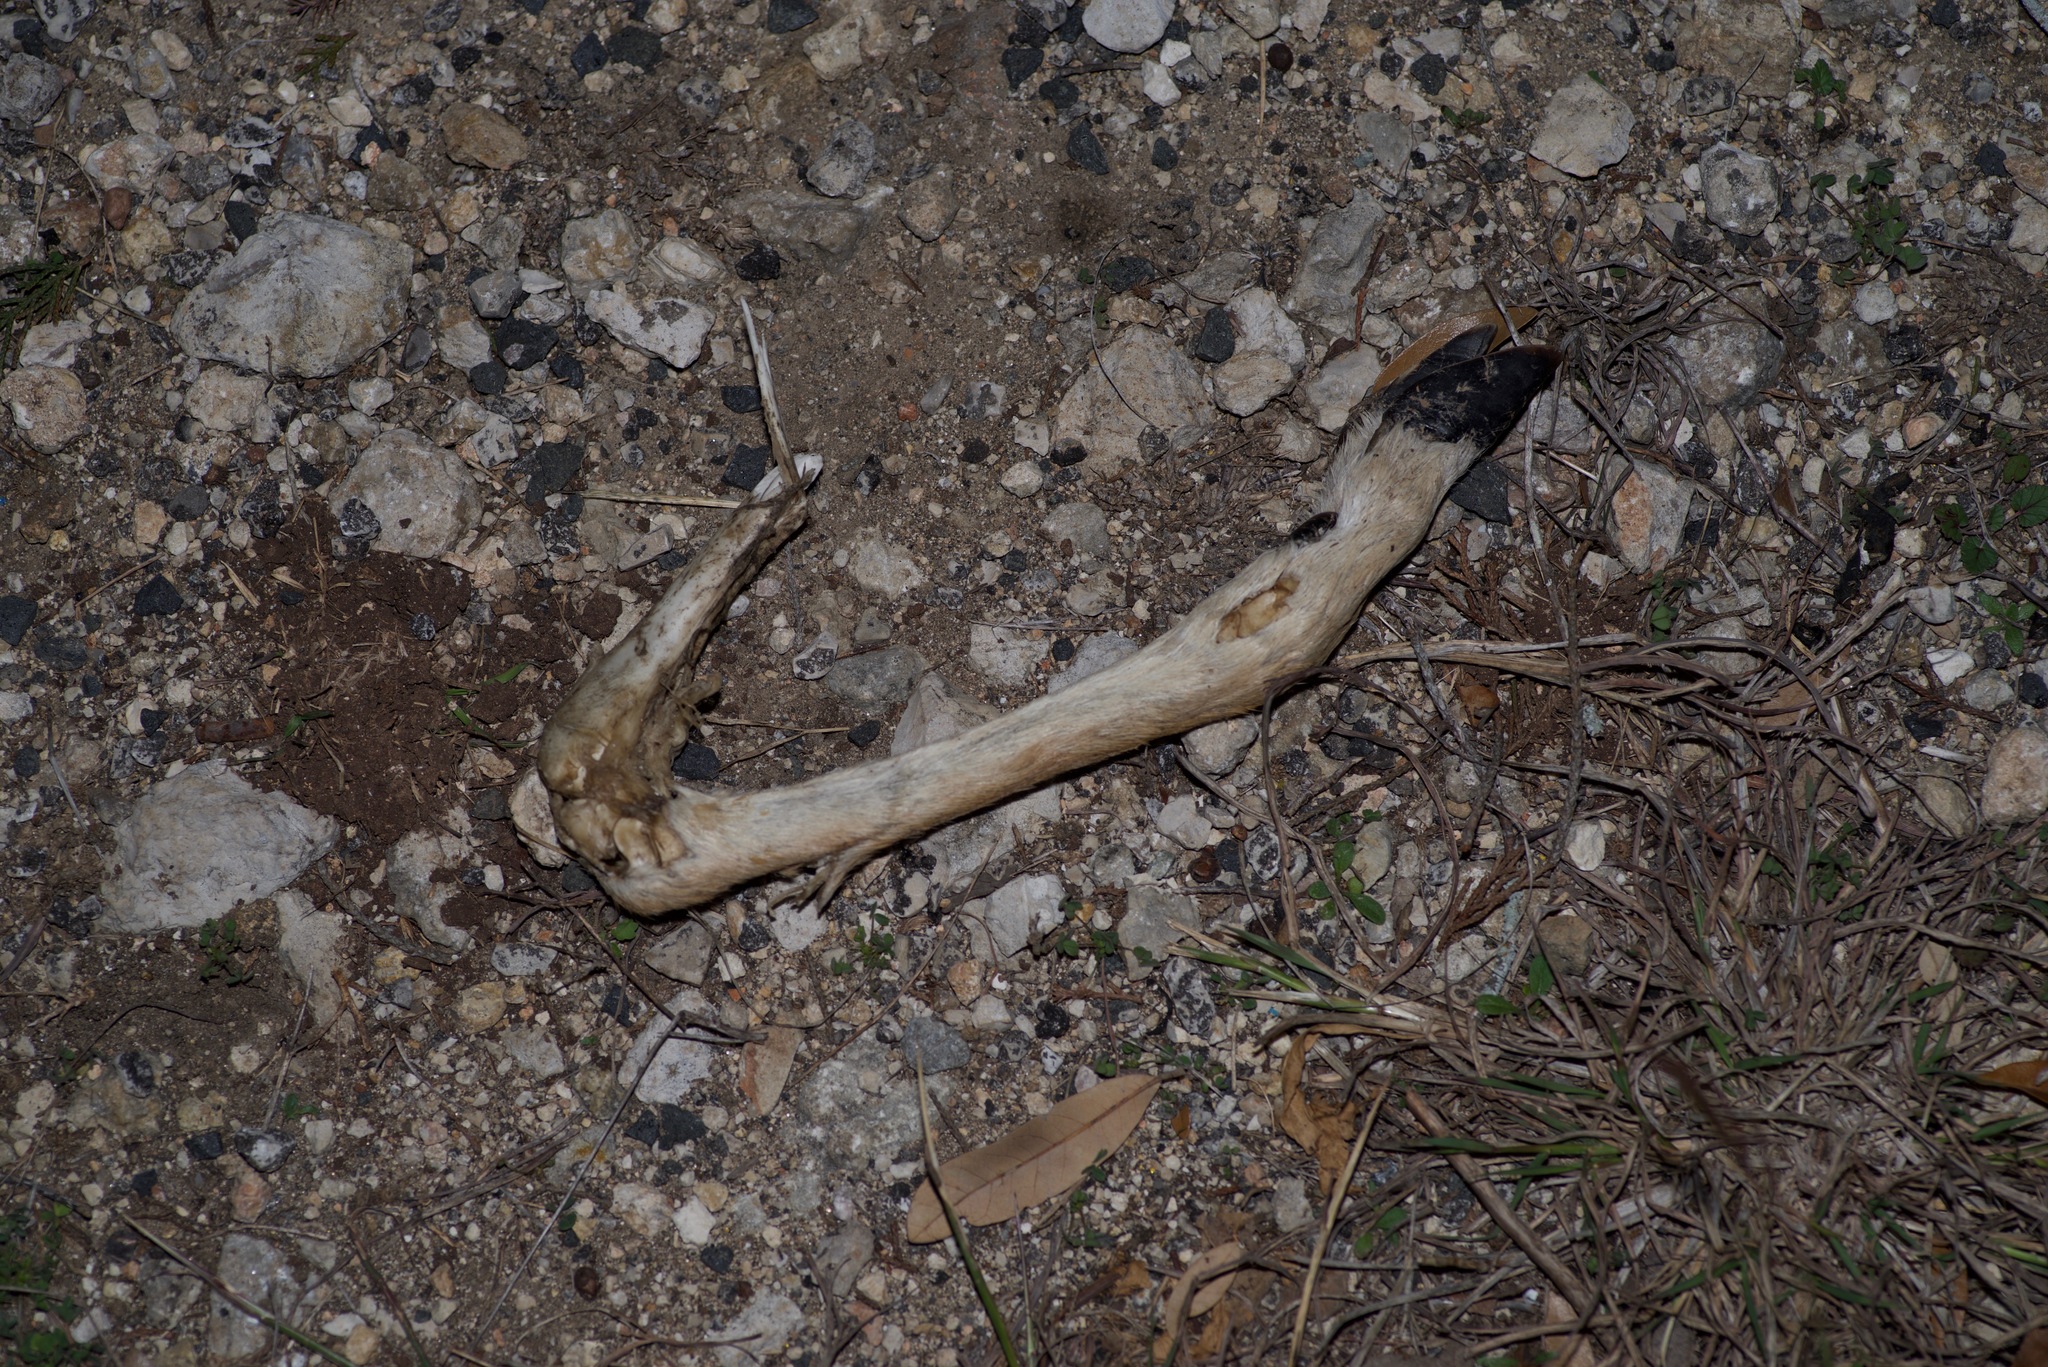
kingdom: Animalia
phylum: Chordata
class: Mammalia
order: Artiodactyla
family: Cervidae
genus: Odocoileus
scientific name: Odocoileus virginianus
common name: White-tailed deer
